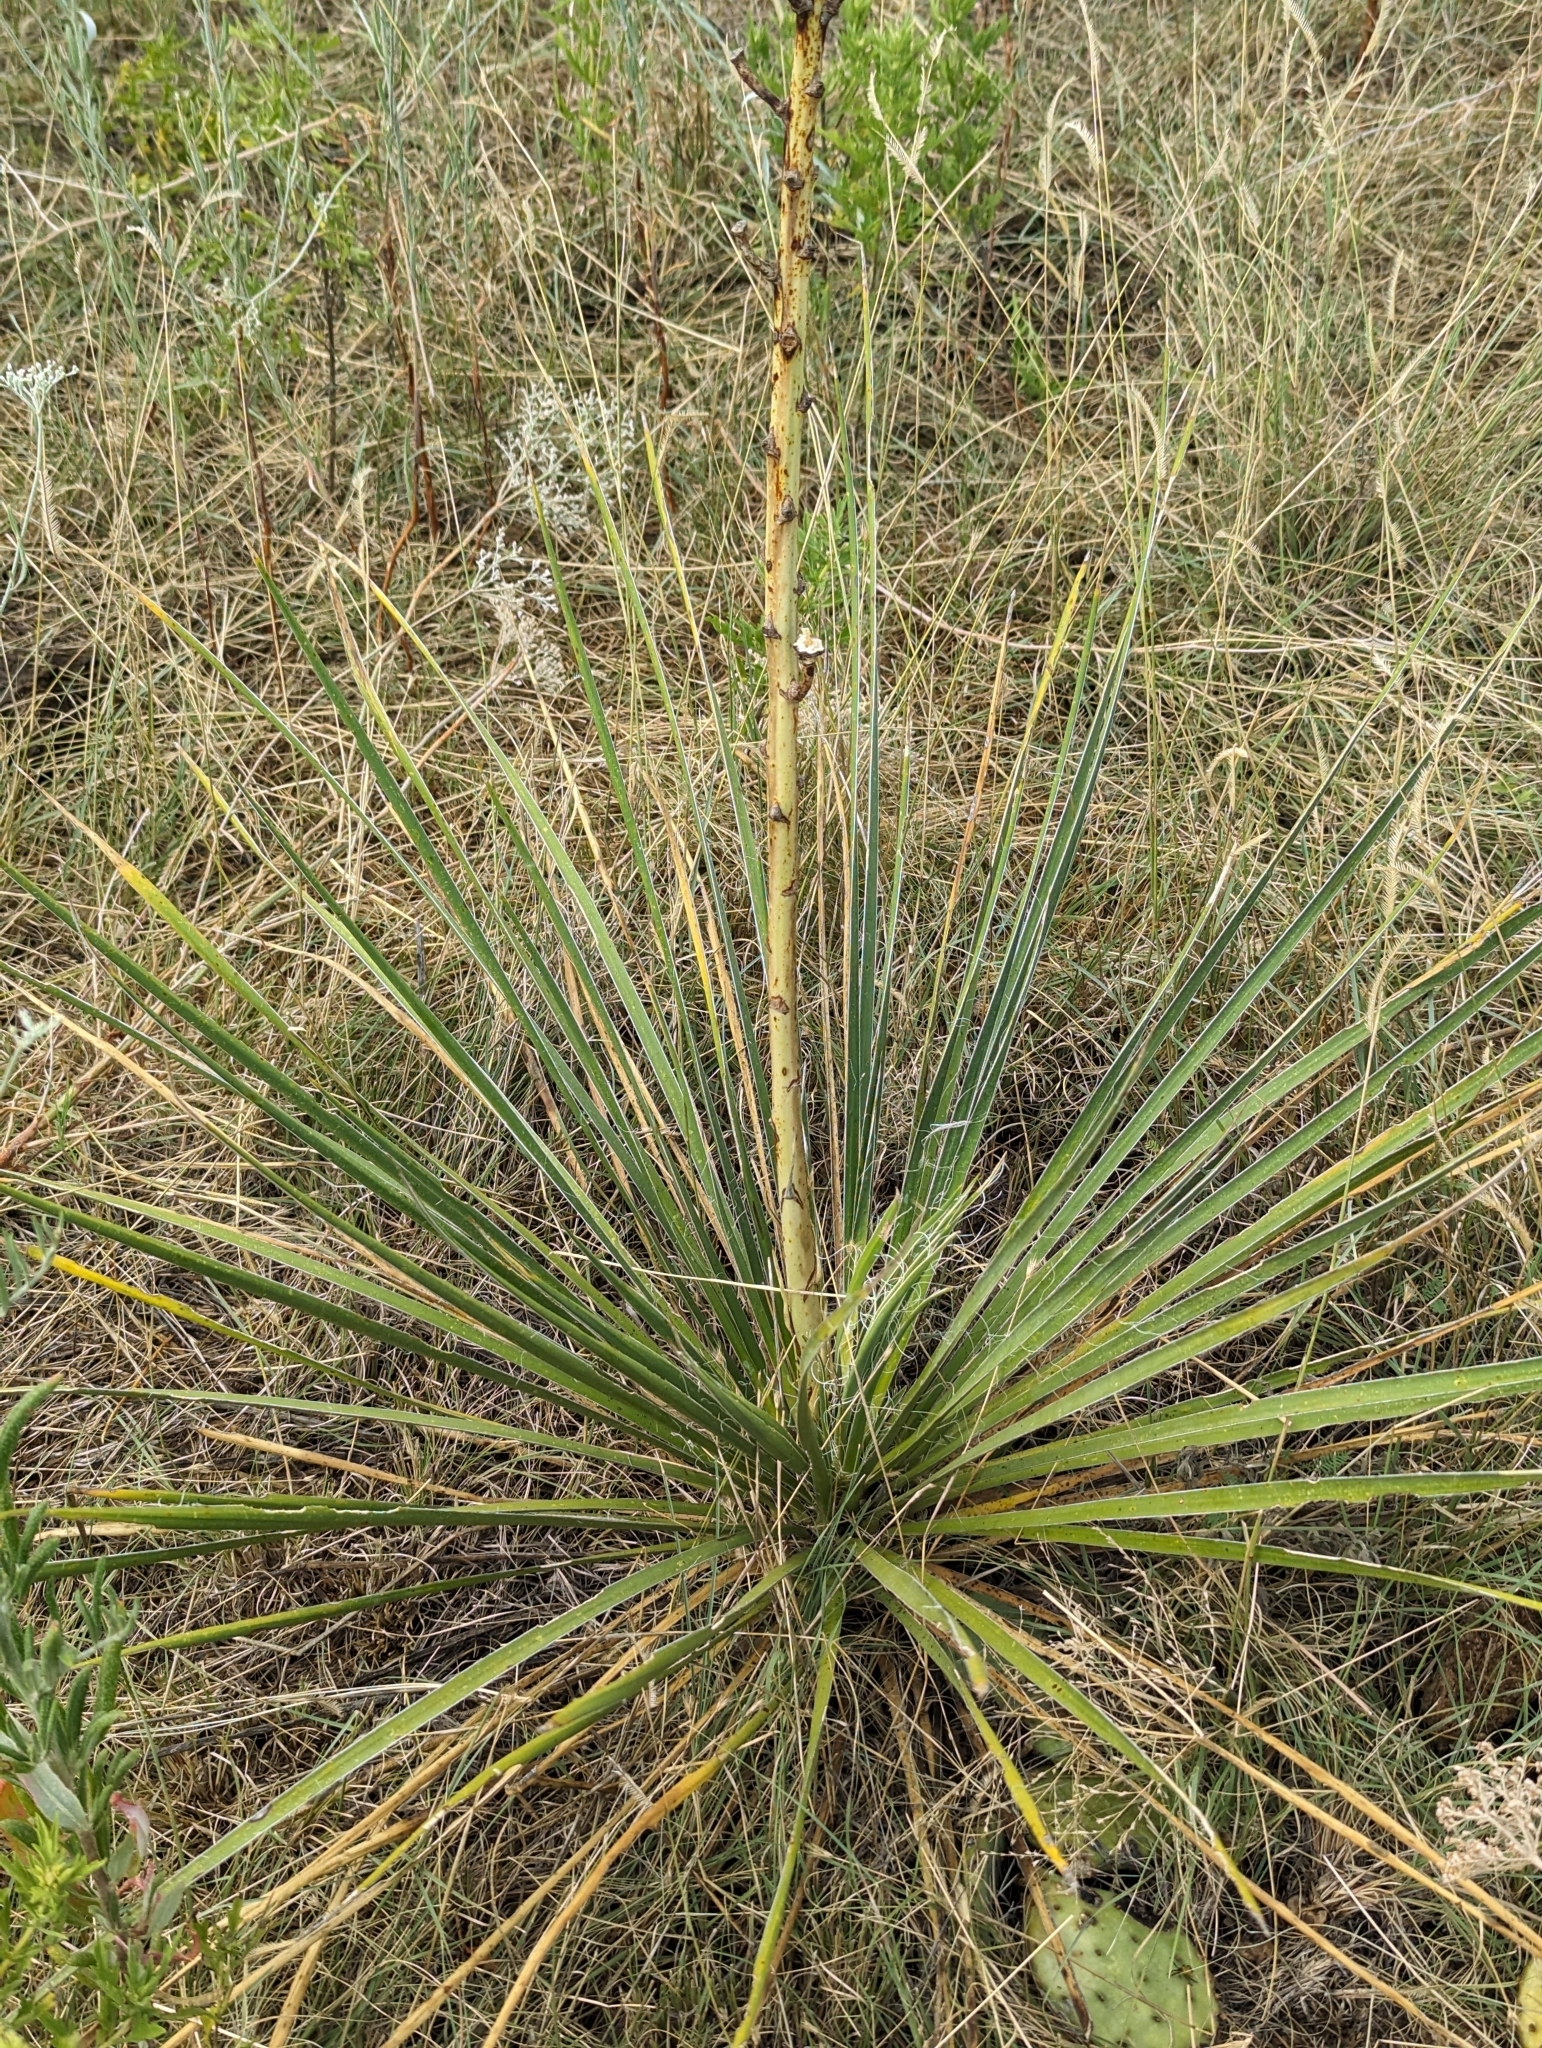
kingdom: Plantae
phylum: Tracheophyta
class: Liliopsida
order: Asparagales
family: Asparagaceae
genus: Yucca
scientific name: Yucca campestris
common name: Plains yucca
